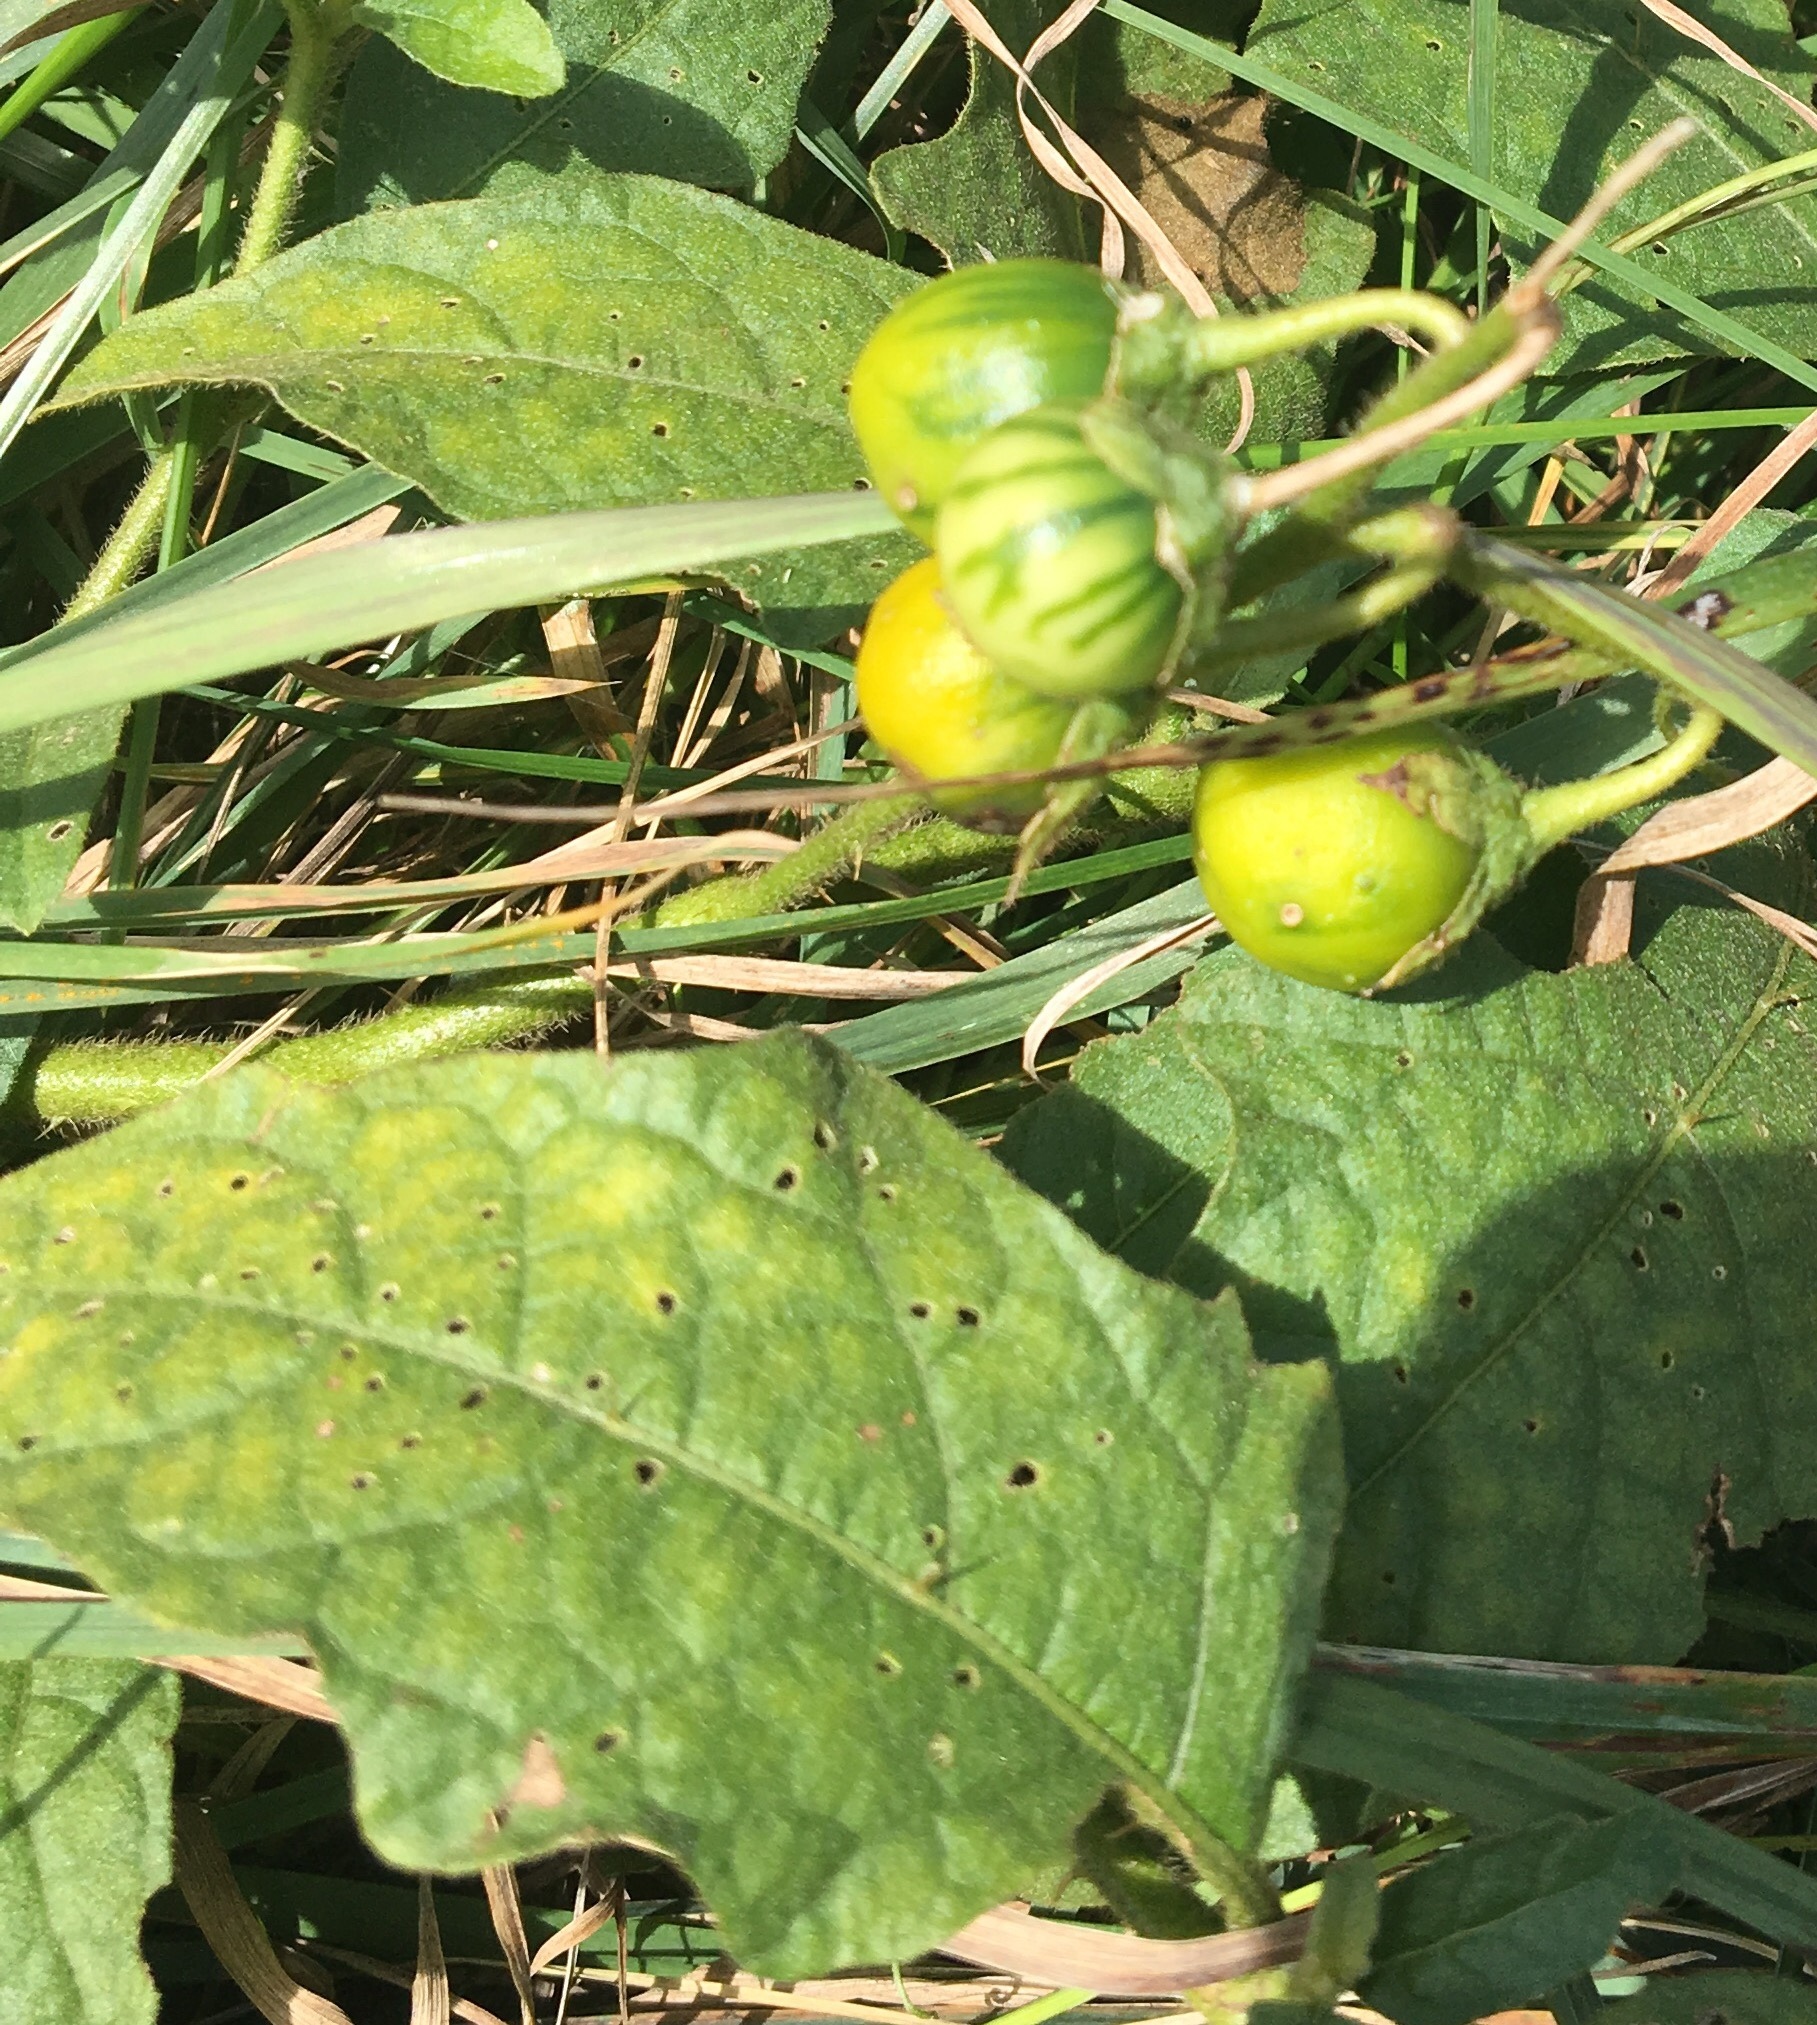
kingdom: Plantae
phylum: Tracheophyta
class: Magnoliopsida
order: Solanales
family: Solanaceae
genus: Solanum
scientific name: Solanum carolinense
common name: Horse-nettle
